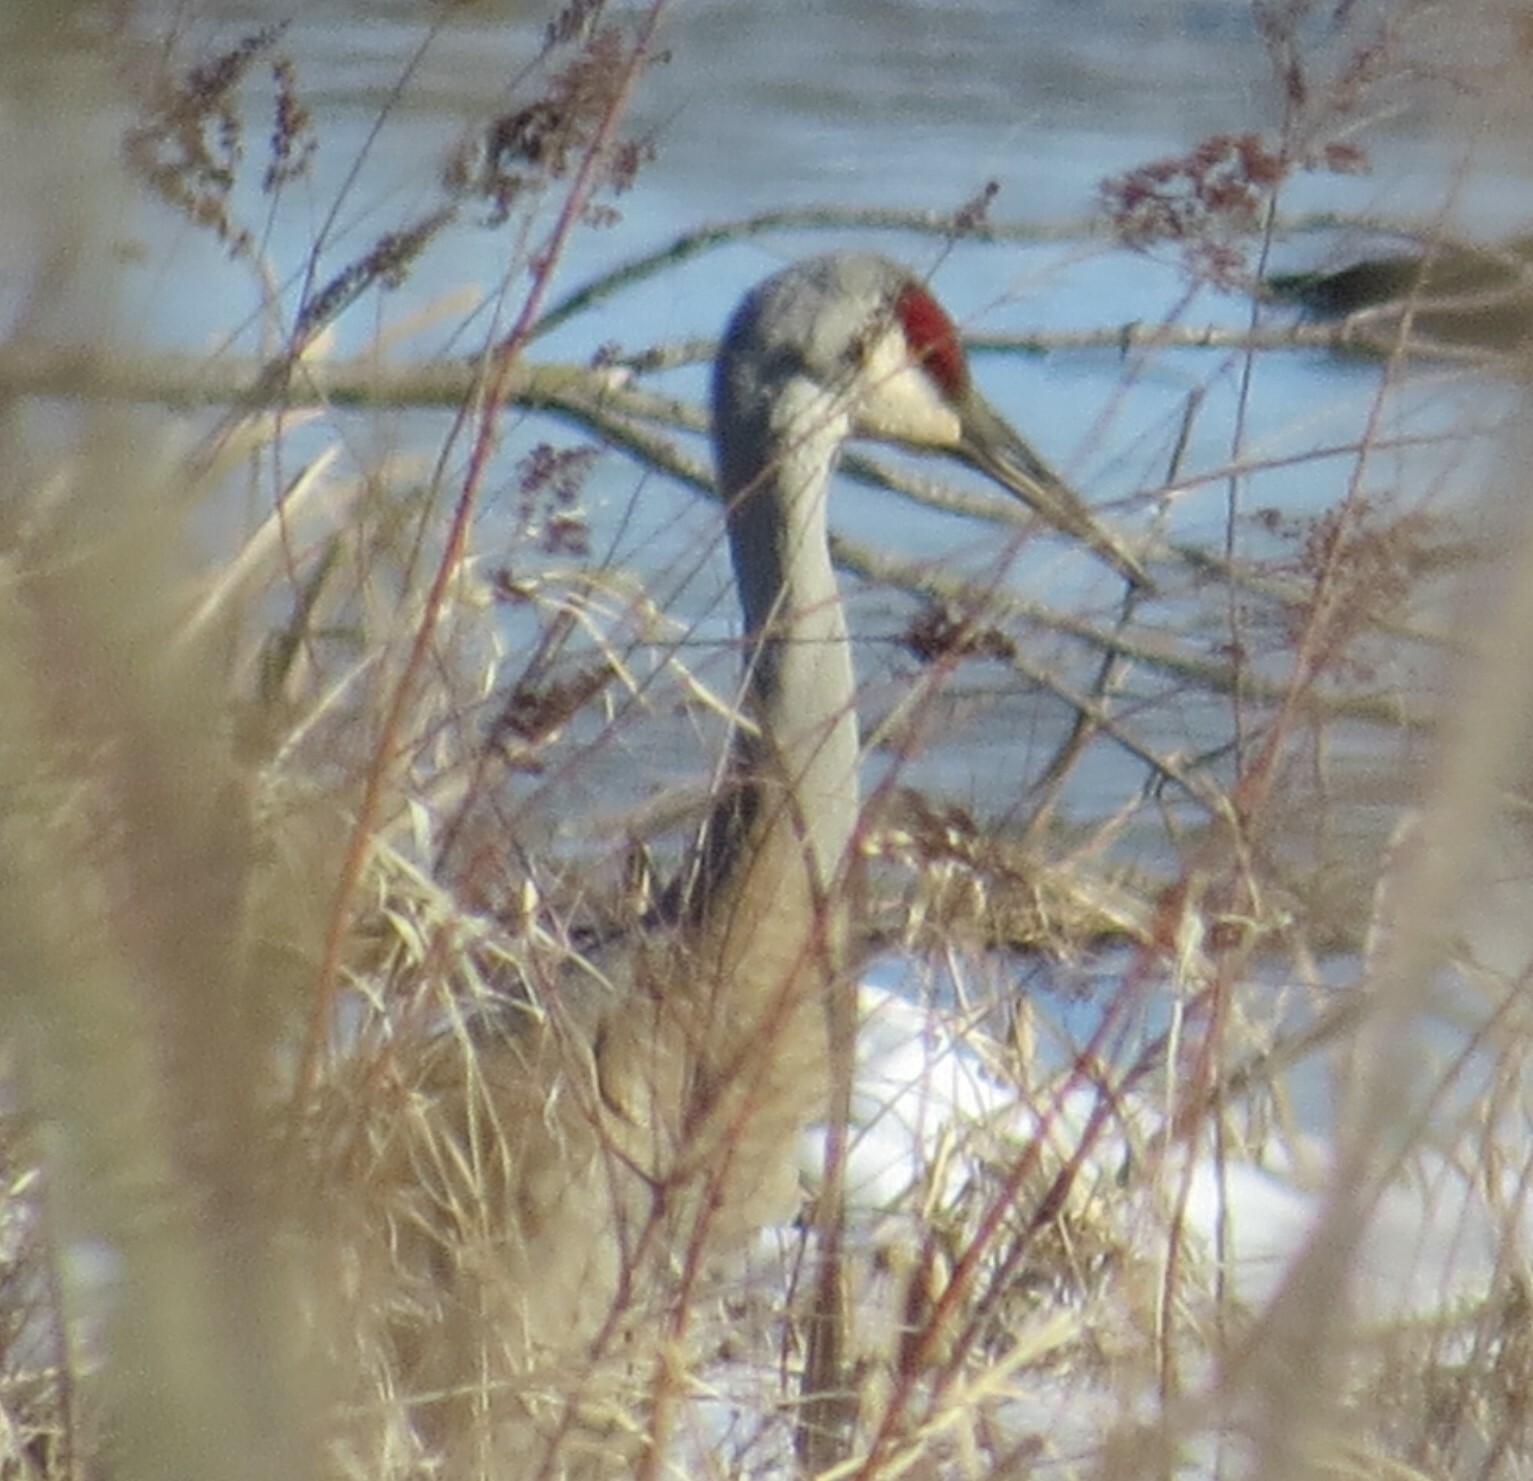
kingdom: Animalia
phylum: Chordata
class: Aves
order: Gruiformes
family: Gruidae
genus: Grus
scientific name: Grus canadensis
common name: Sandhill crane
